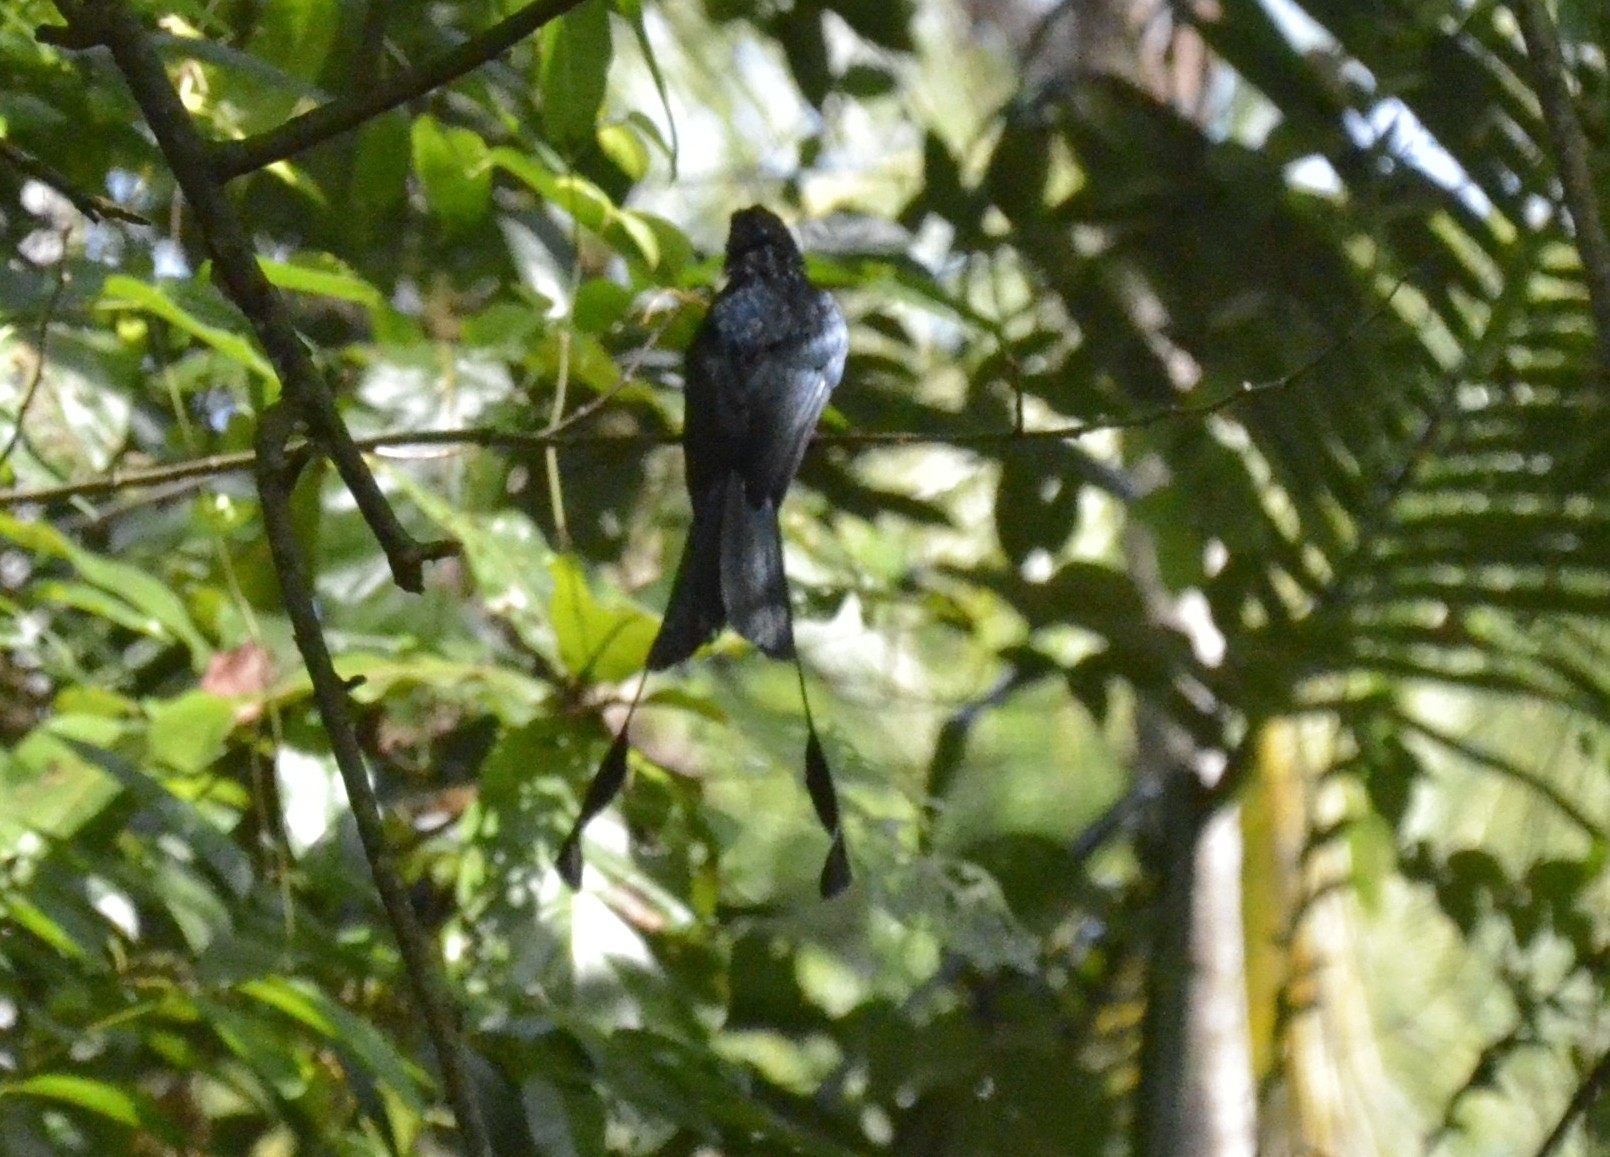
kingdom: Animalia
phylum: Chordata
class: Aves
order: Passeriformes
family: Dicruridae
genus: Dicrurus
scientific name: Dicrurus paradiseus
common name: Greater racket-tailed drongo
